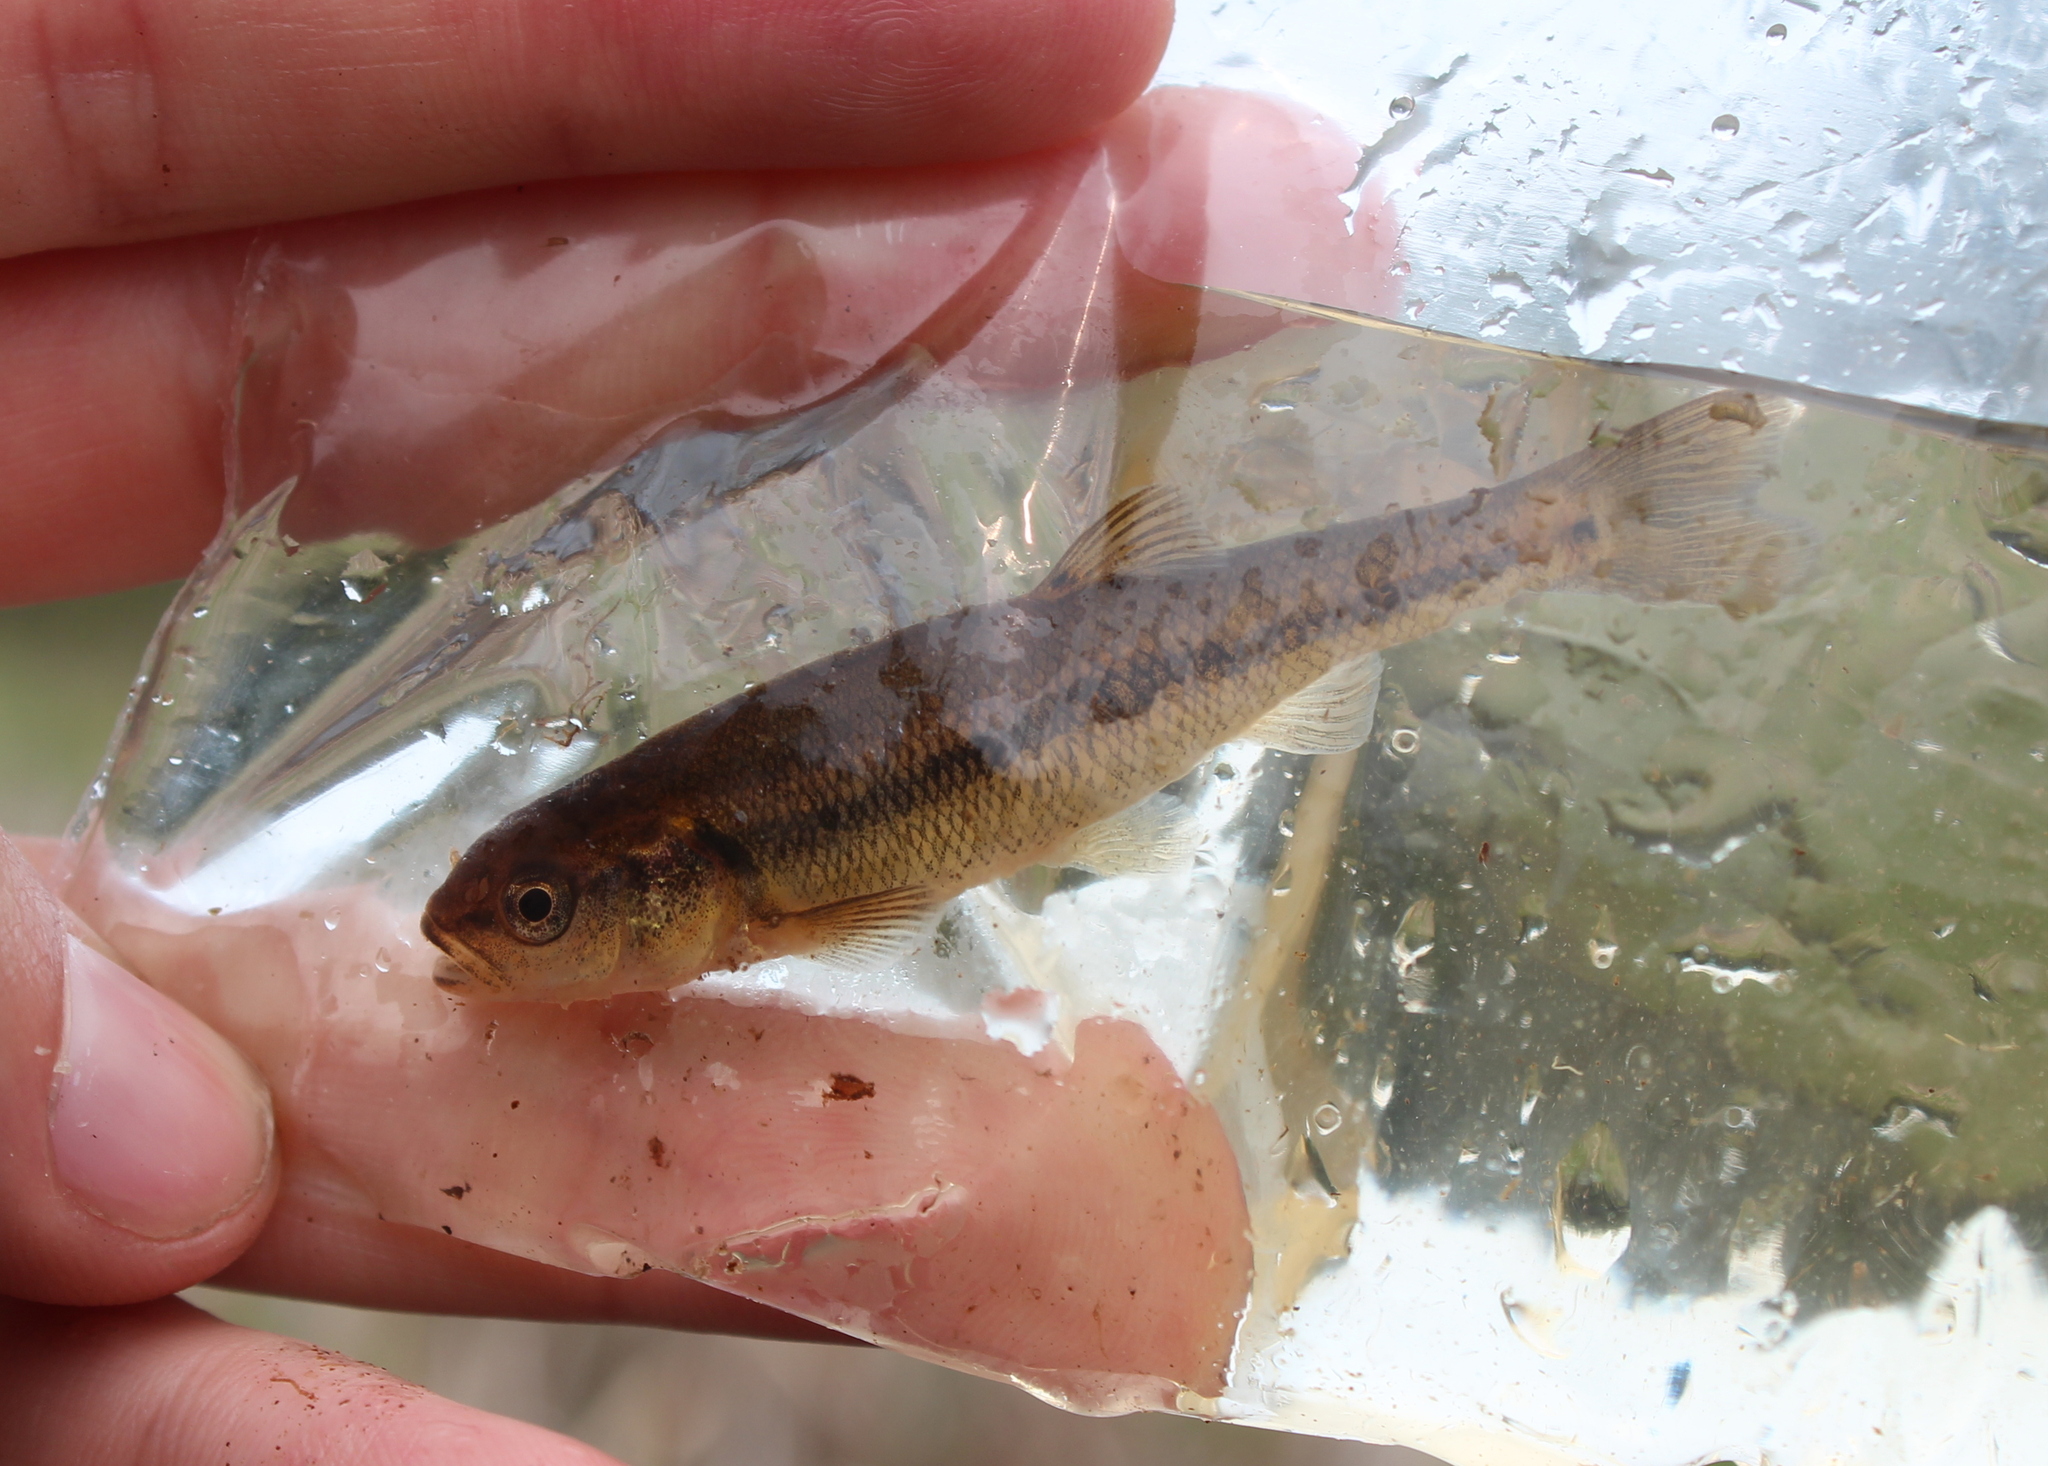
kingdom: Animalia
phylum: Chordata
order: Cypriniformes
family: Cyprinidae
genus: Semotilus
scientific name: Semotilus atromaculatus
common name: Creek chub
